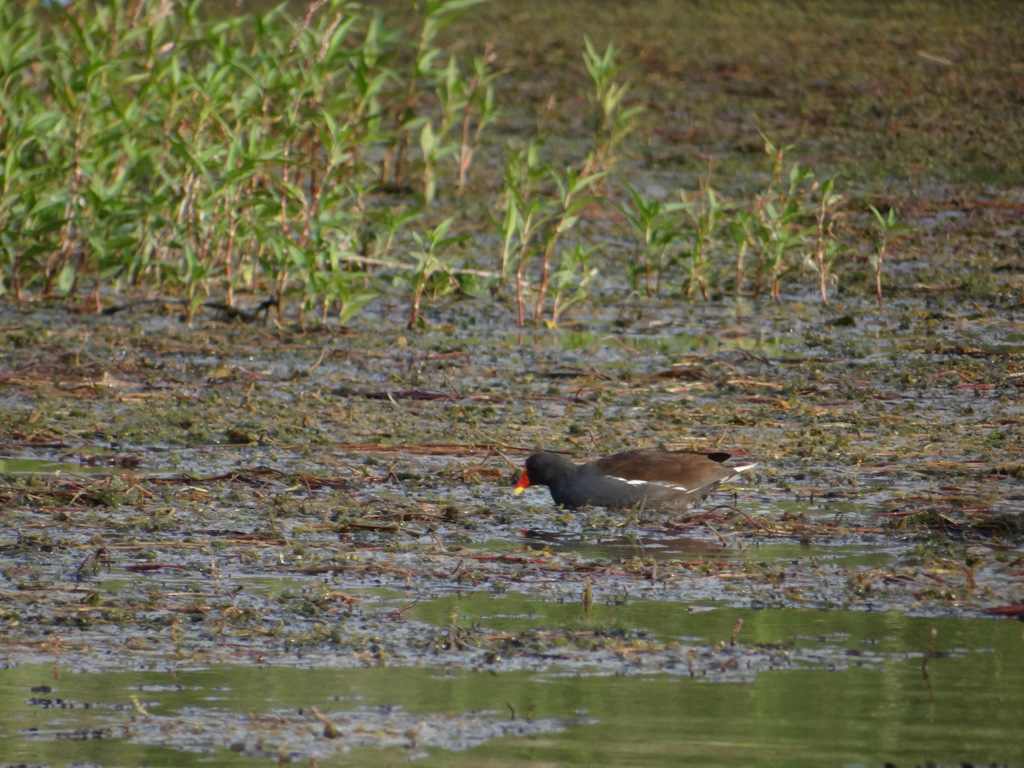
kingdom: Animalia
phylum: Chordata
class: Aves
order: Gruiformes
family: Rallidae
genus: Gallinula
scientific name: Gallinula chloropus
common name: Common moorhen
